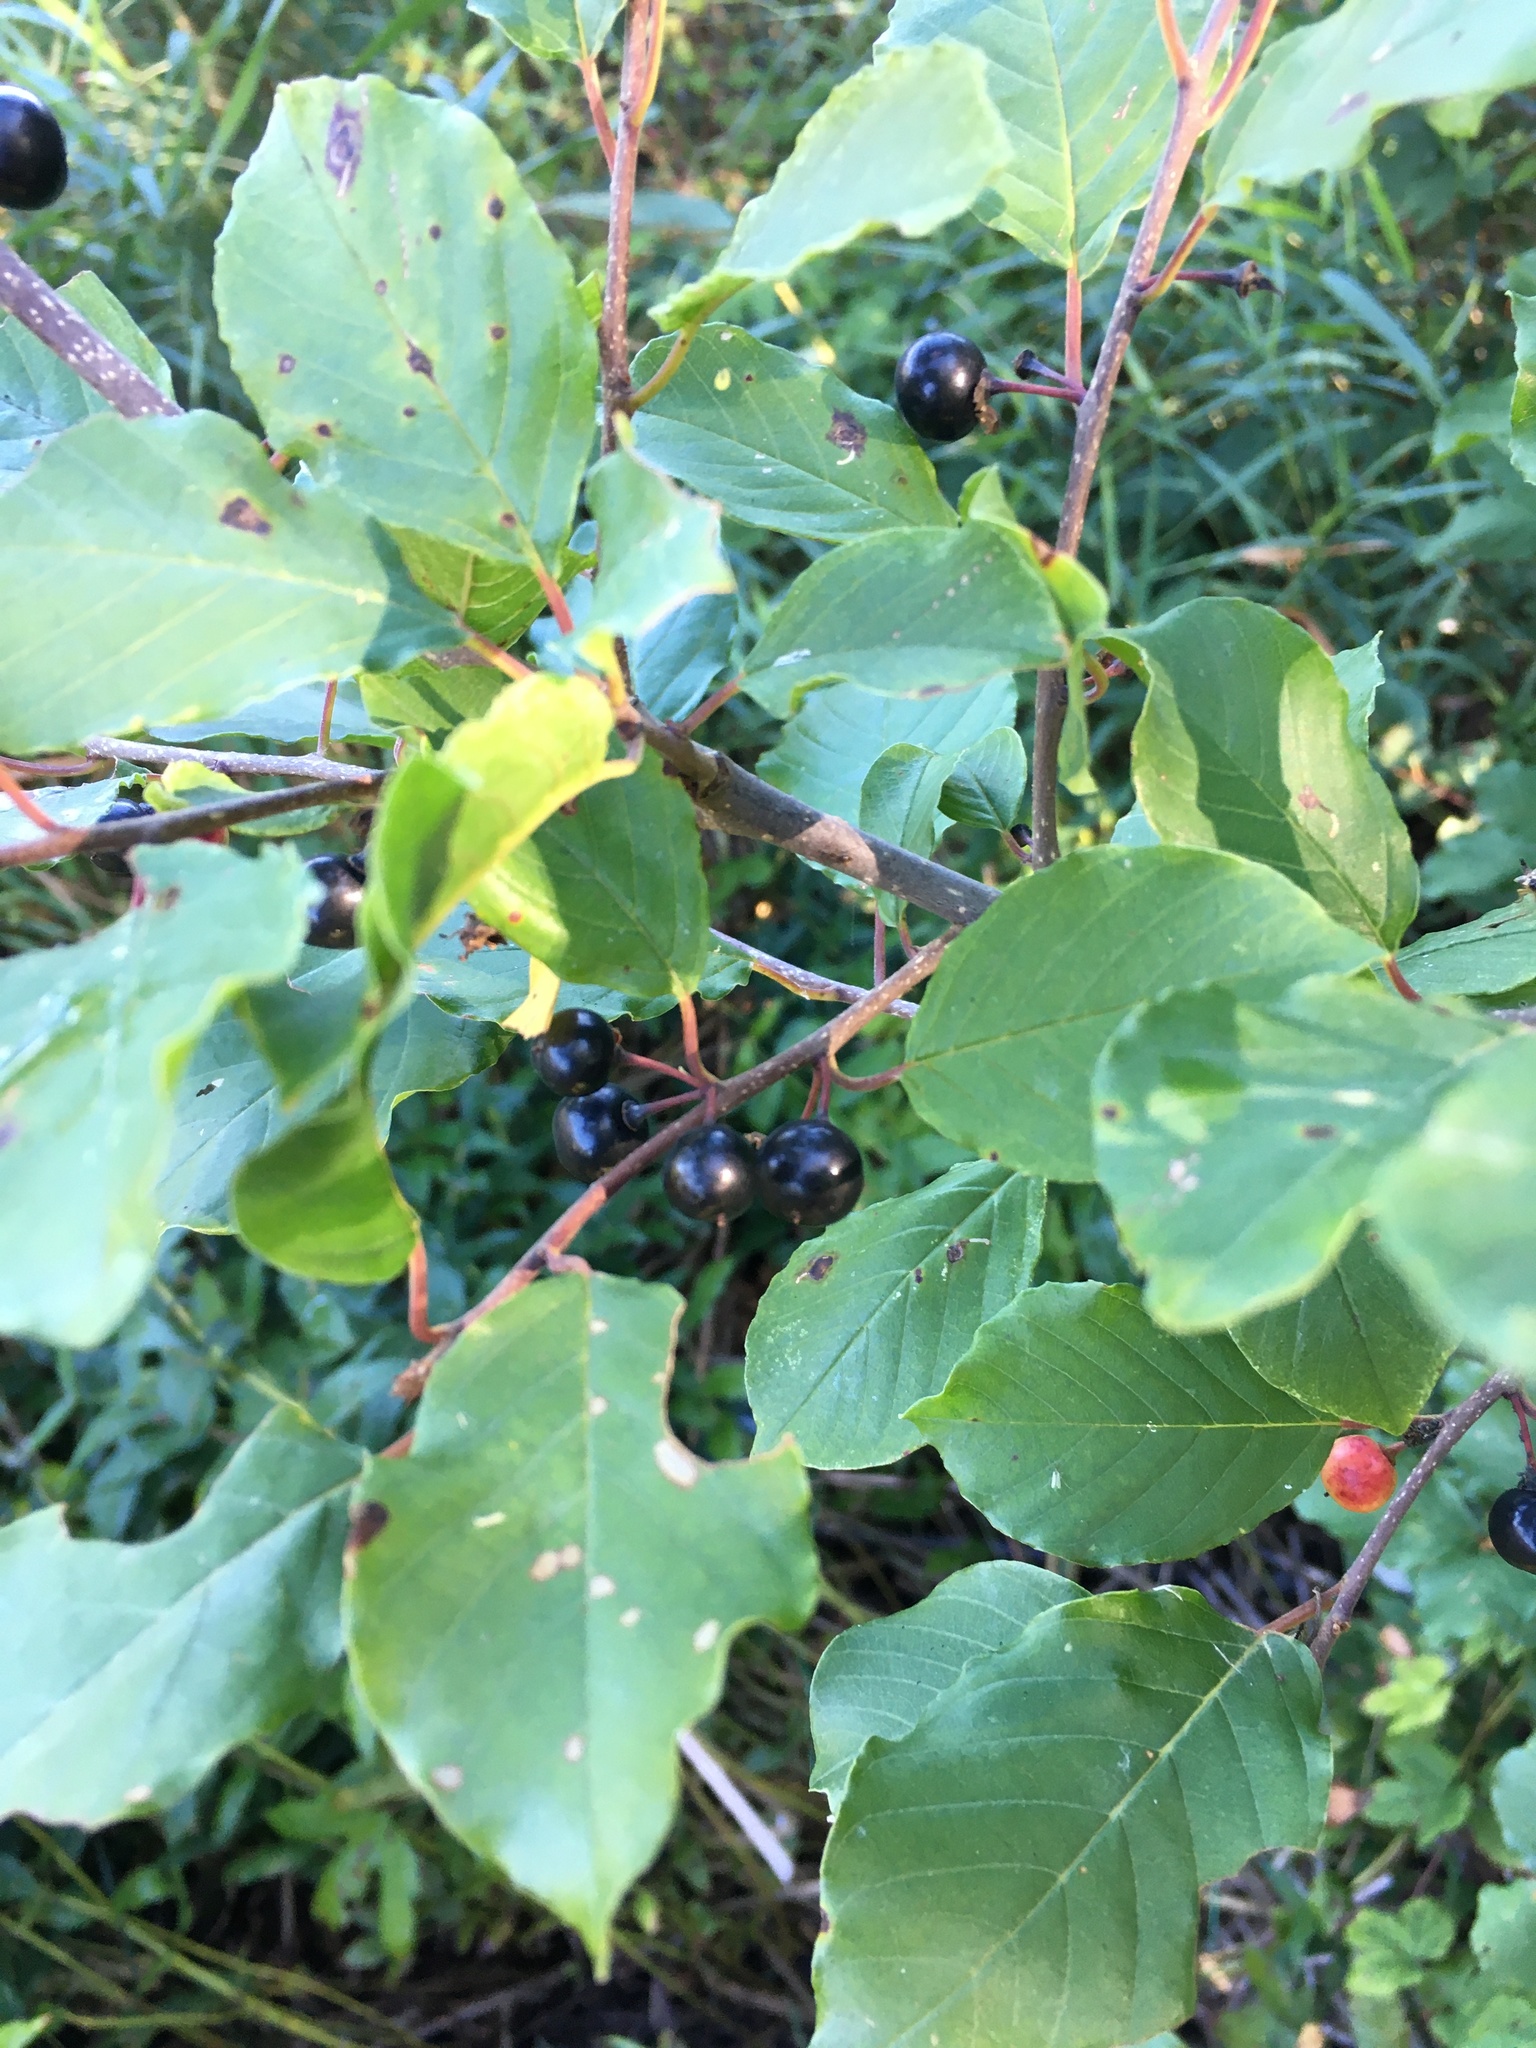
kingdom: Plantae
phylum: Tracheophyta
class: Magnoliopsida
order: Rosales
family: Rhamnaceae
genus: Frangula
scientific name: Frangula alnus
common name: Alder buckthorn
